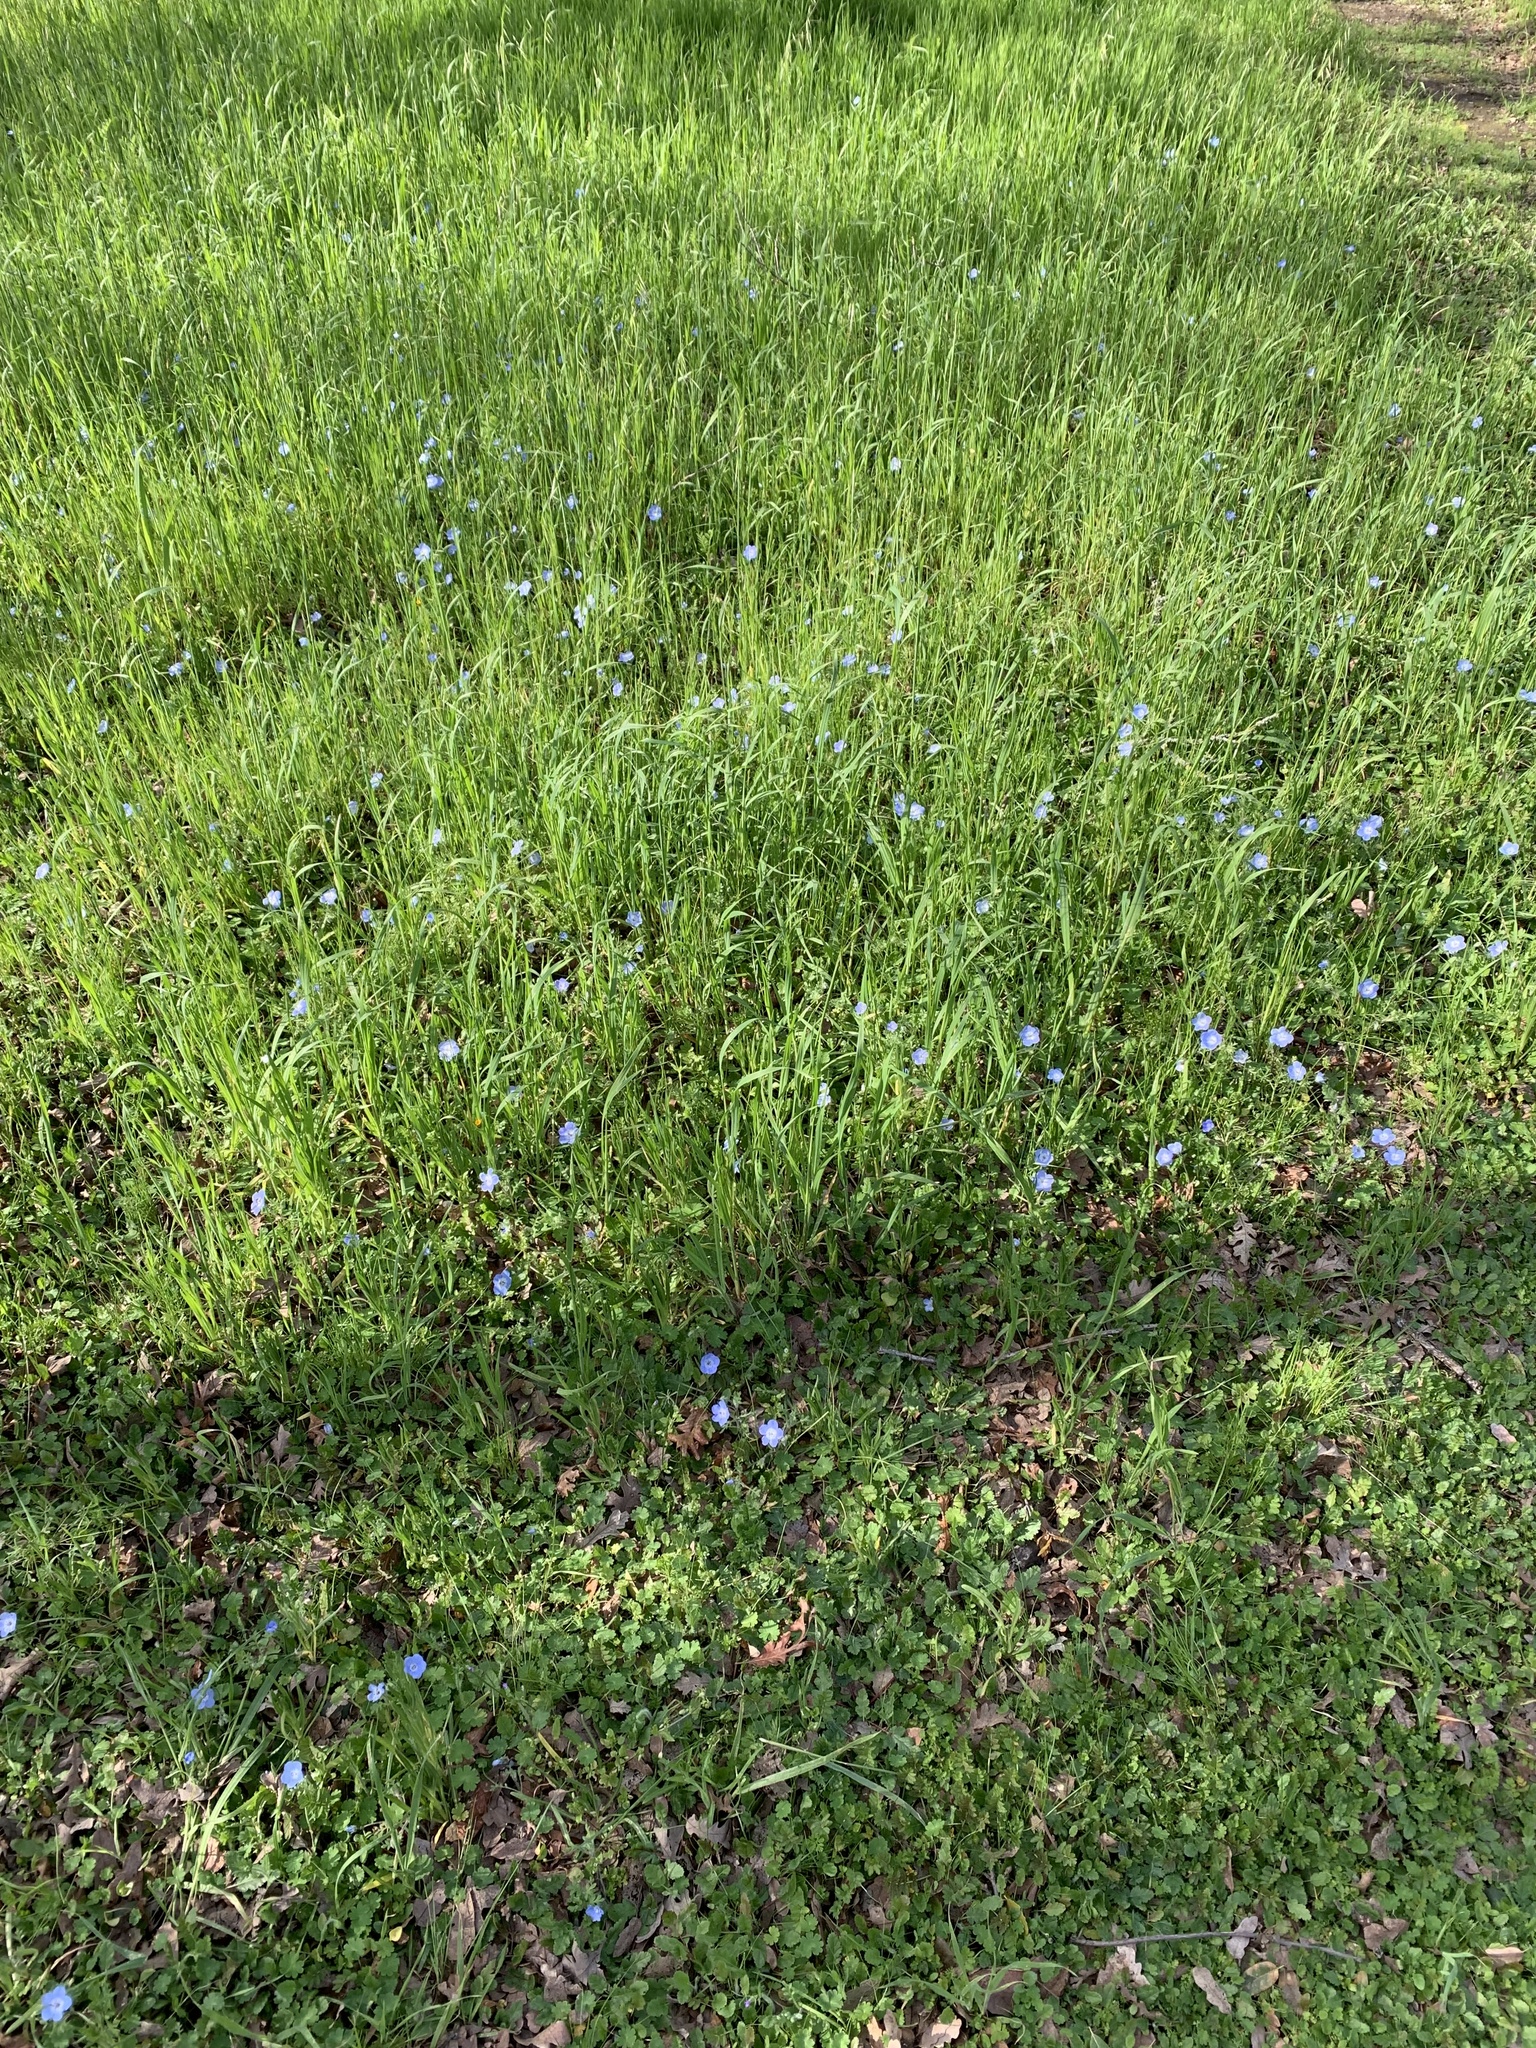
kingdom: Plantae
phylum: Tracheophyta
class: Magnoliopsida
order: Boraginales
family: Hydrophyllaceae
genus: Nemophila
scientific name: Nemophila menziesii
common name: Baby's-blue-eyes
